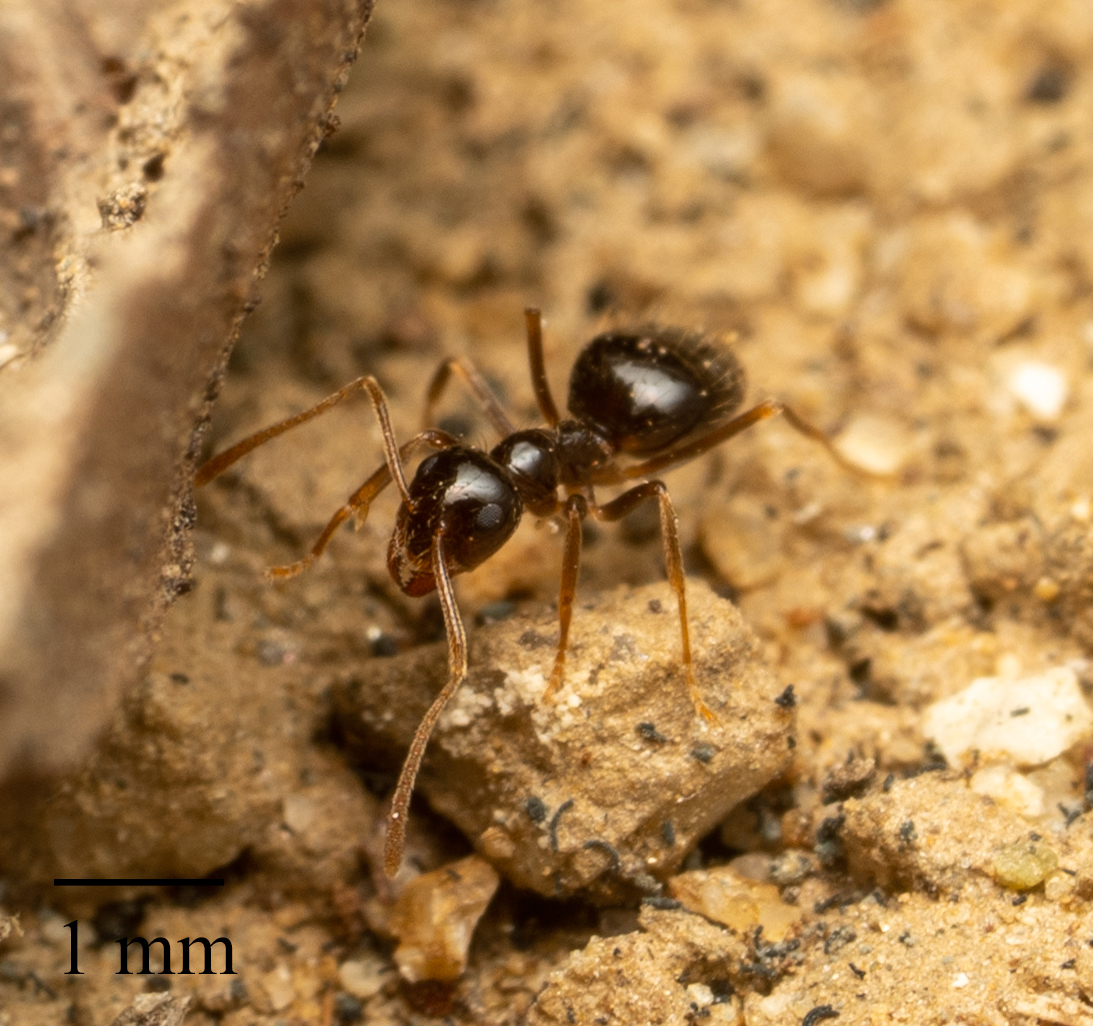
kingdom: Animalia
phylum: Arthropoda
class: Insecta
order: Hymenoptera
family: Formicidae
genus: Prenolepis
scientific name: Prenolepis imparis
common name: Small honey ant
